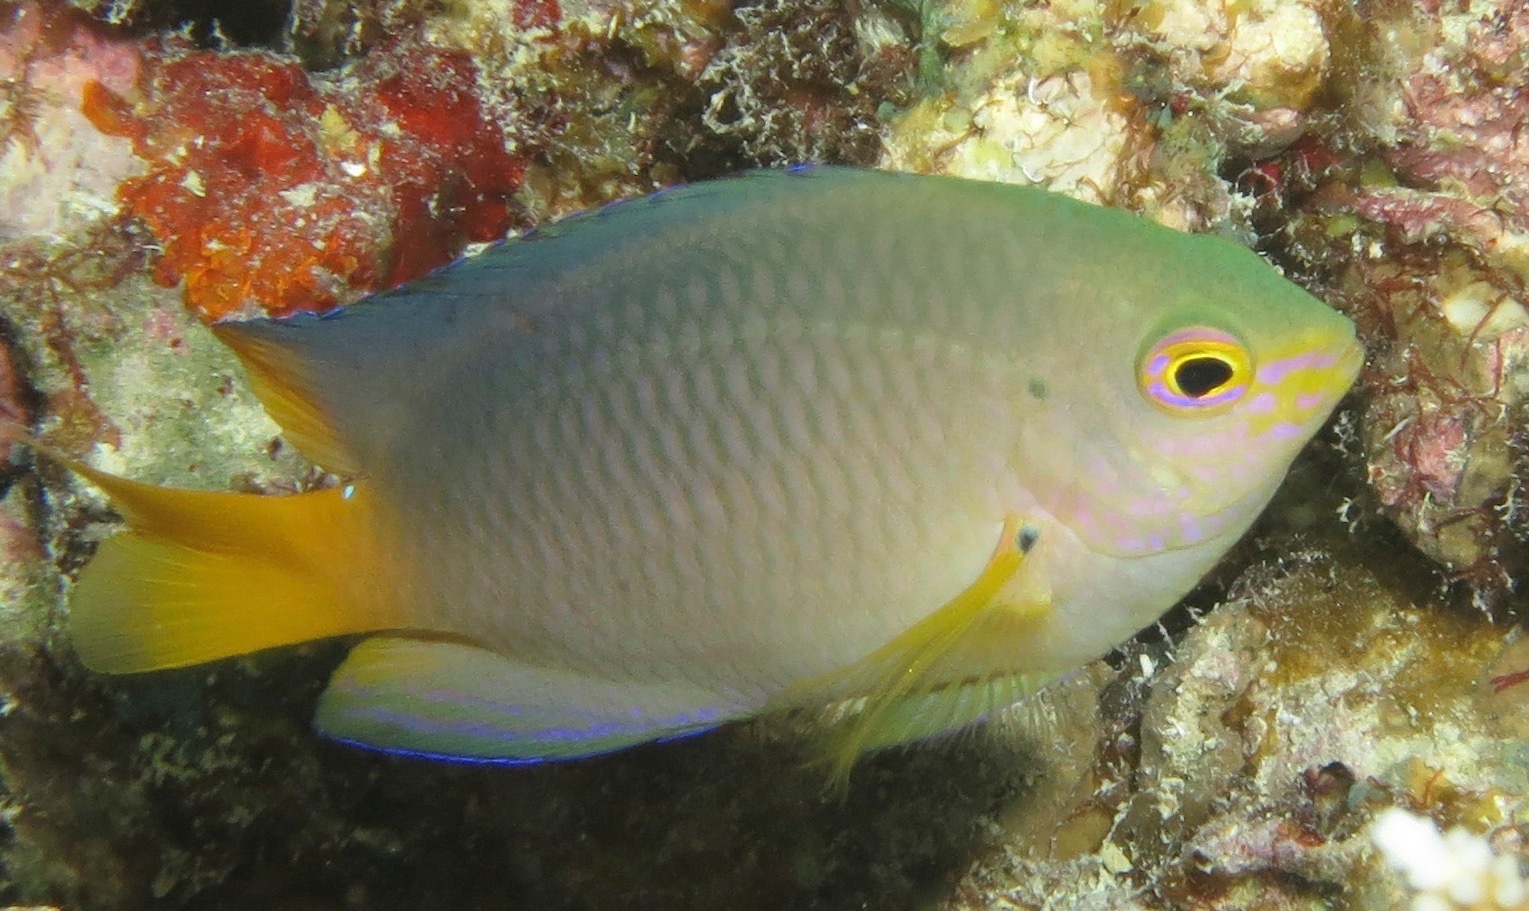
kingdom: Animalia
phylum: Chordata
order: Perciformes
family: Pomacentridae
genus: Pomacentrus
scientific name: Pomacentrus maafu
